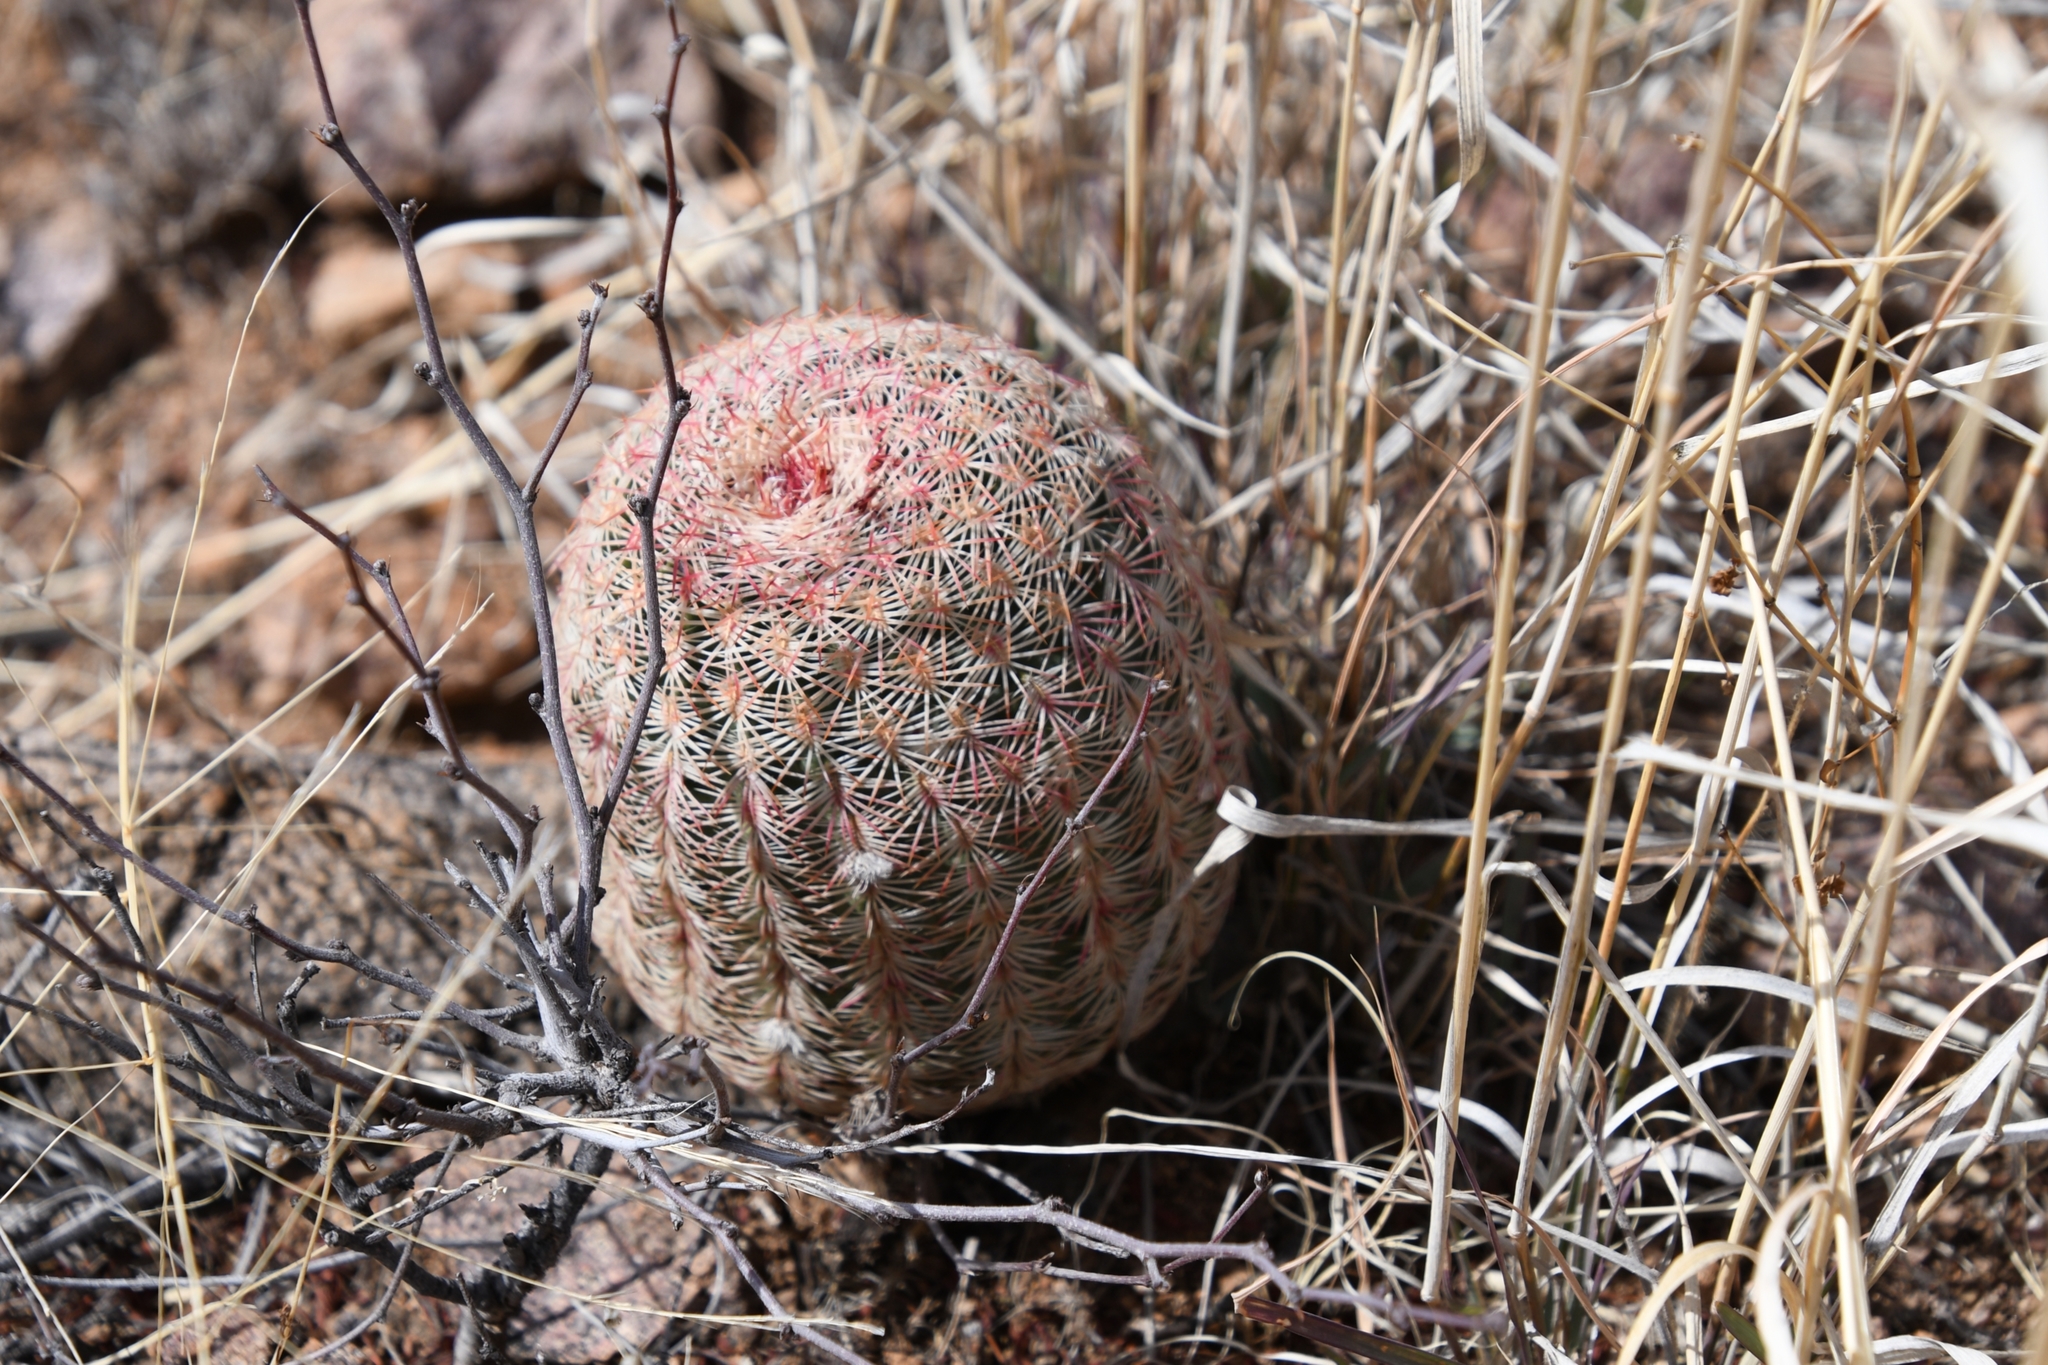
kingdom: Plantae
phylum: Tracheophyta
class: Magnoliopsida
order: Caryophyllales
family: Cactaceae
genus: Echinocereus
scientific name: Echinocereus rigidissimus
